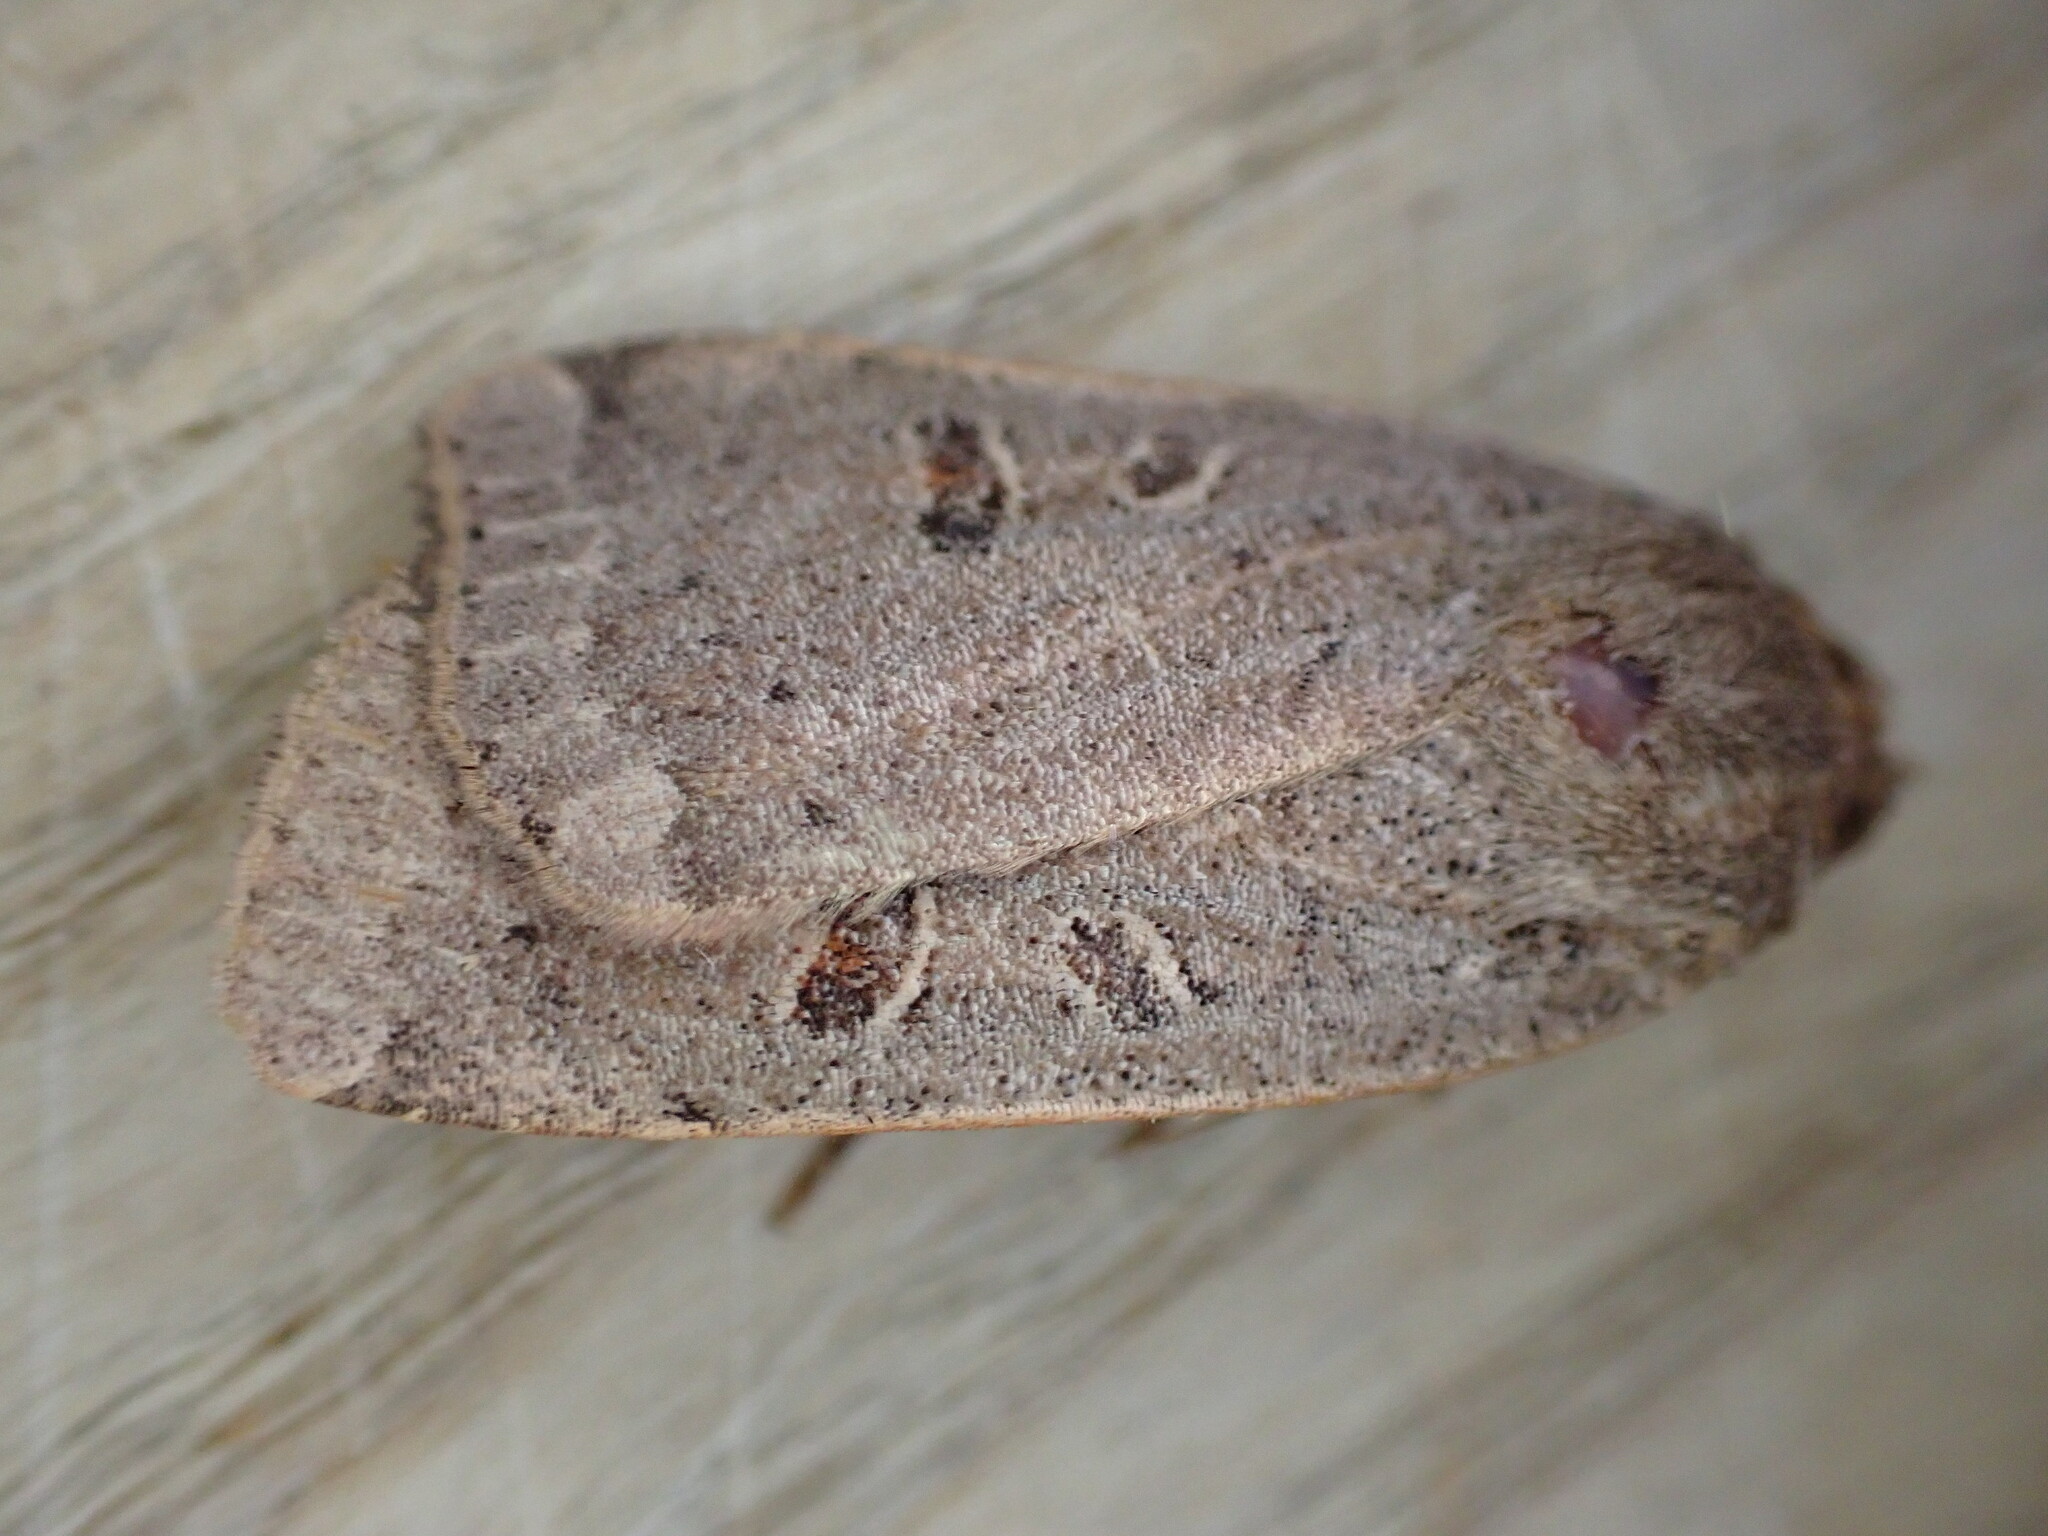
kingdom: Animalia
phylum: Arthropoda
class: Insecta
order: Lepidoptera
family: Noctuidae
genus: Noctua
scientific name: Noctua comes
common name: Lesser yellow underwing
